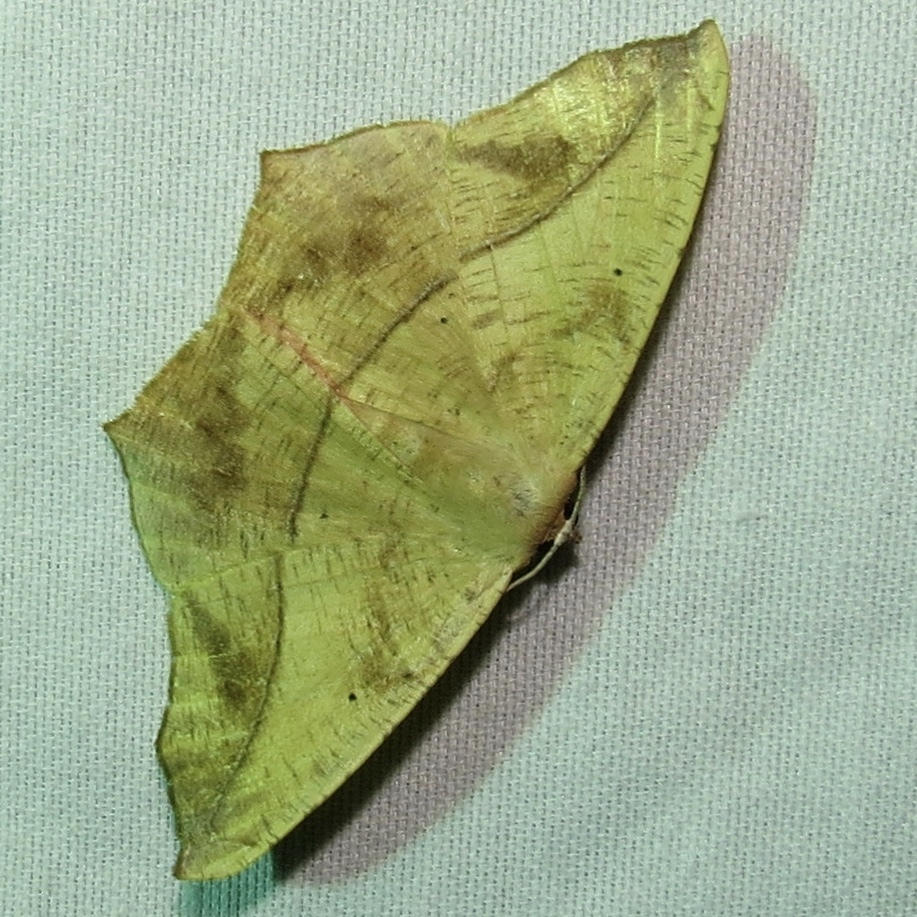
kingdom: Animalia
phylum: Arthropoda
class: Insecta
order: Lepidoptera
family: Geometridae
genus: Prochoerodes
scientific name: Prochoerodes lineola
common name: Large maple spanworm
